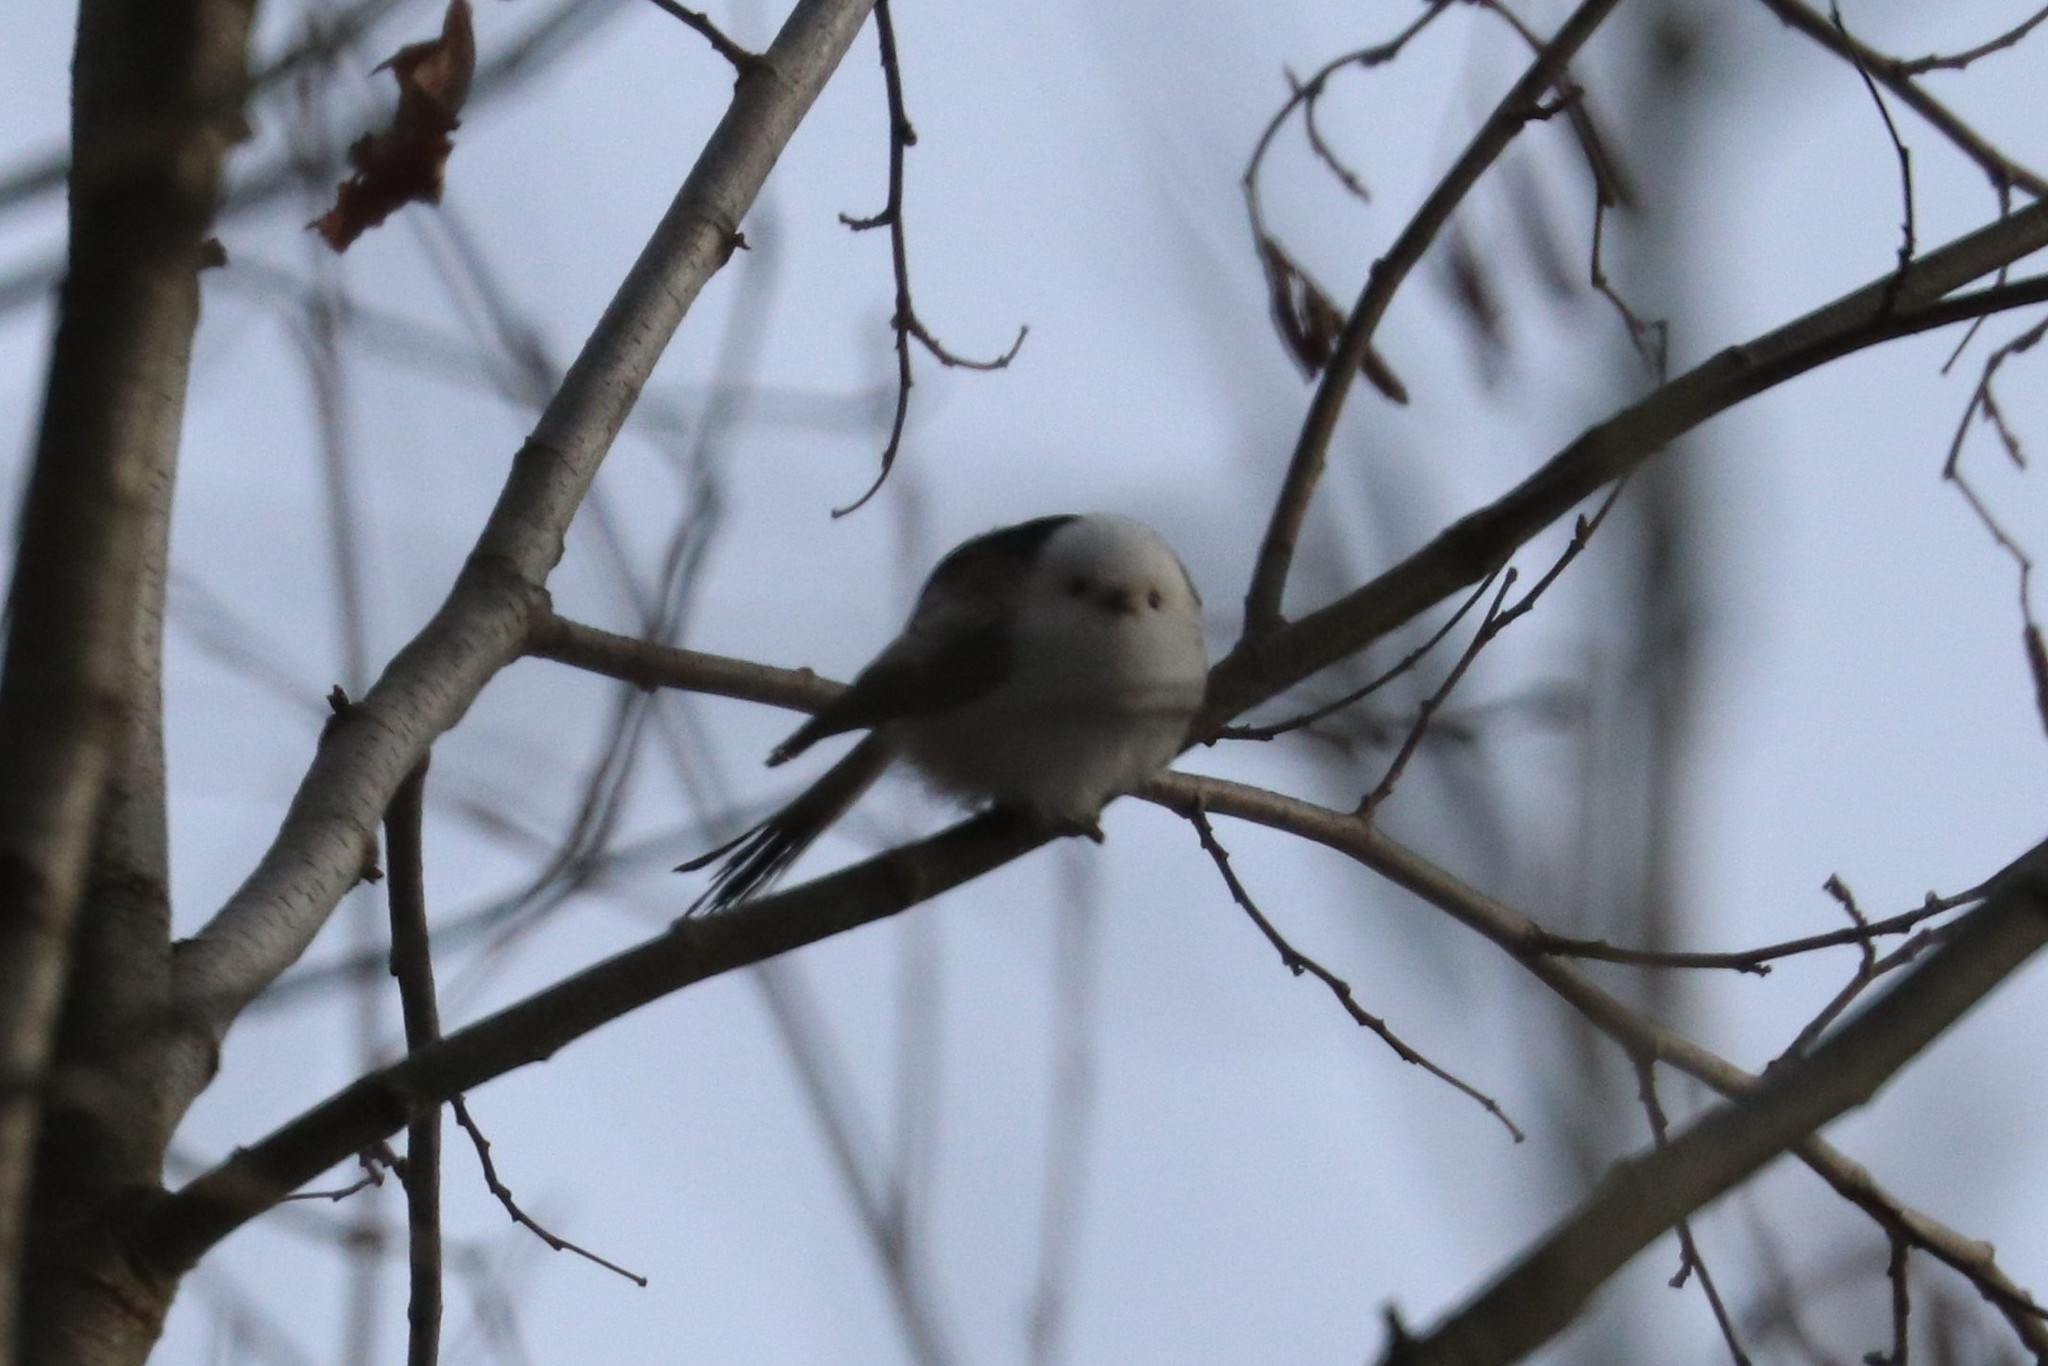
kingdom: Animalia
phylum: Chordata
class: Aves
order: Passeriformes
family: Aegithalidae
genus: Aegithalos
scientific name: Aegithalos caudatus
